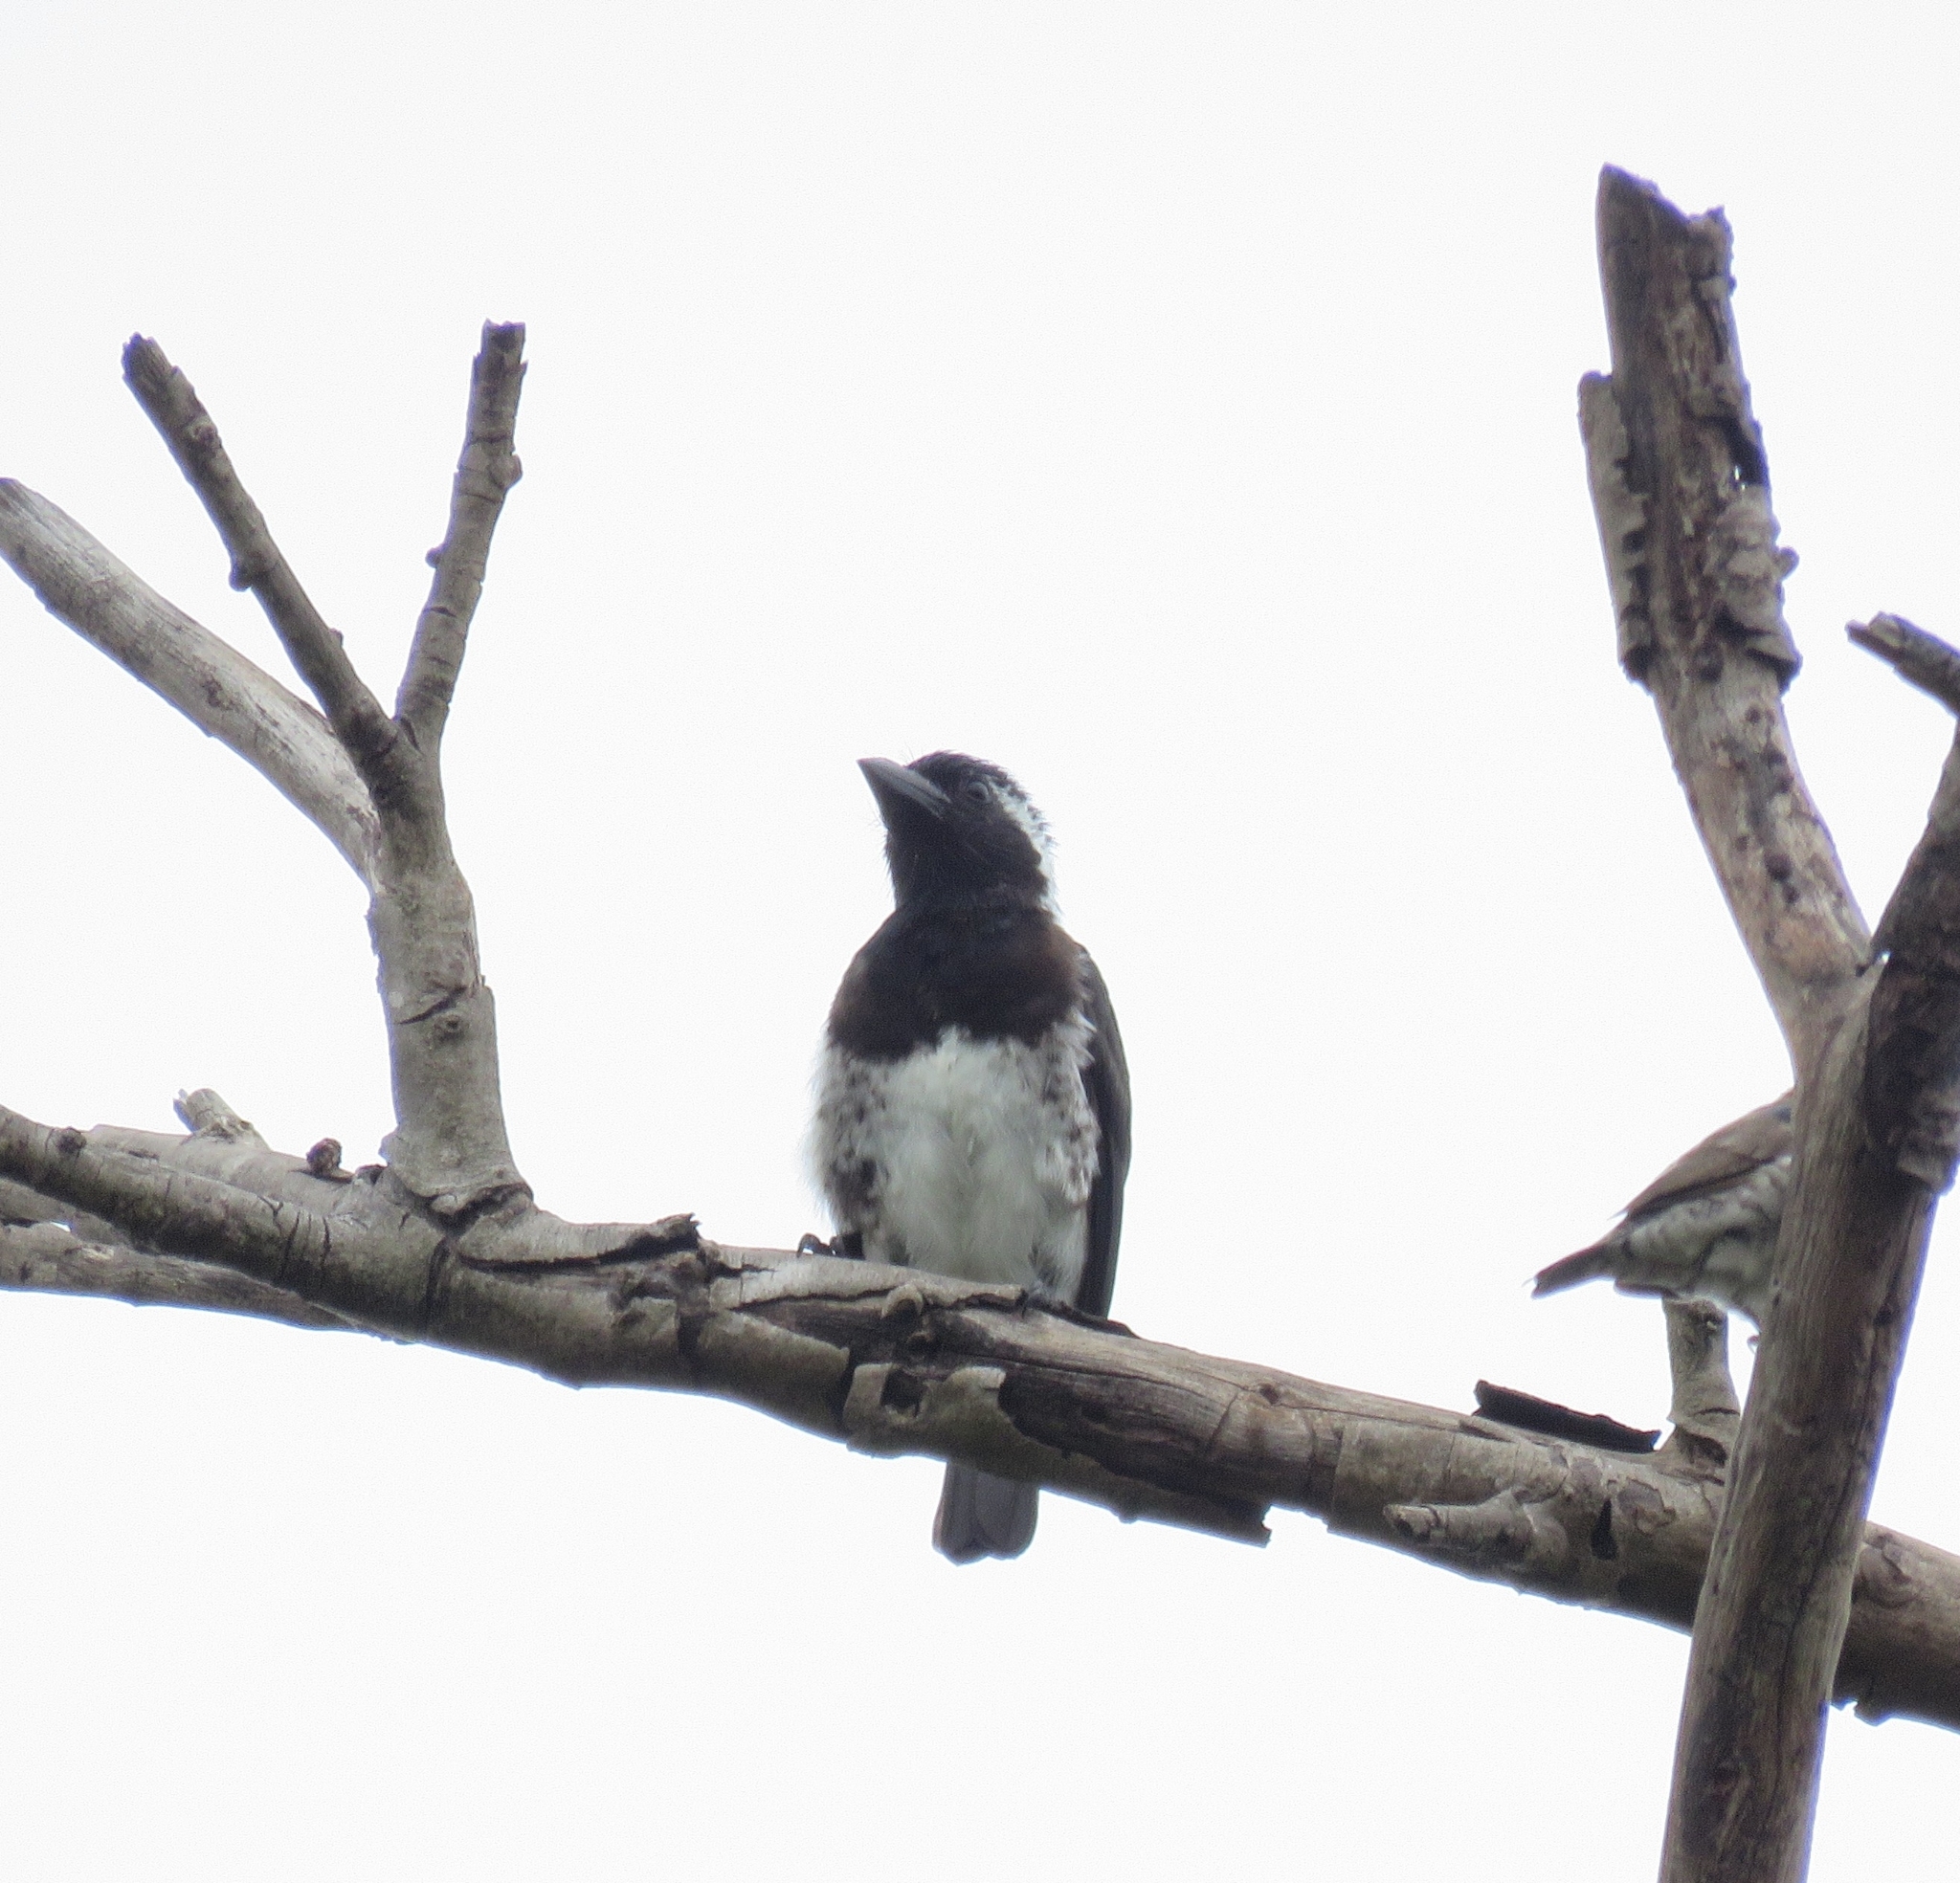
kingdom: Animalia
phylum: Chordata
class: Aves
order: Piciformes
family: Lybiidae
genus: Stactolaema
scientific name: Stactolaema leucotis
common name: White-eared barbet
